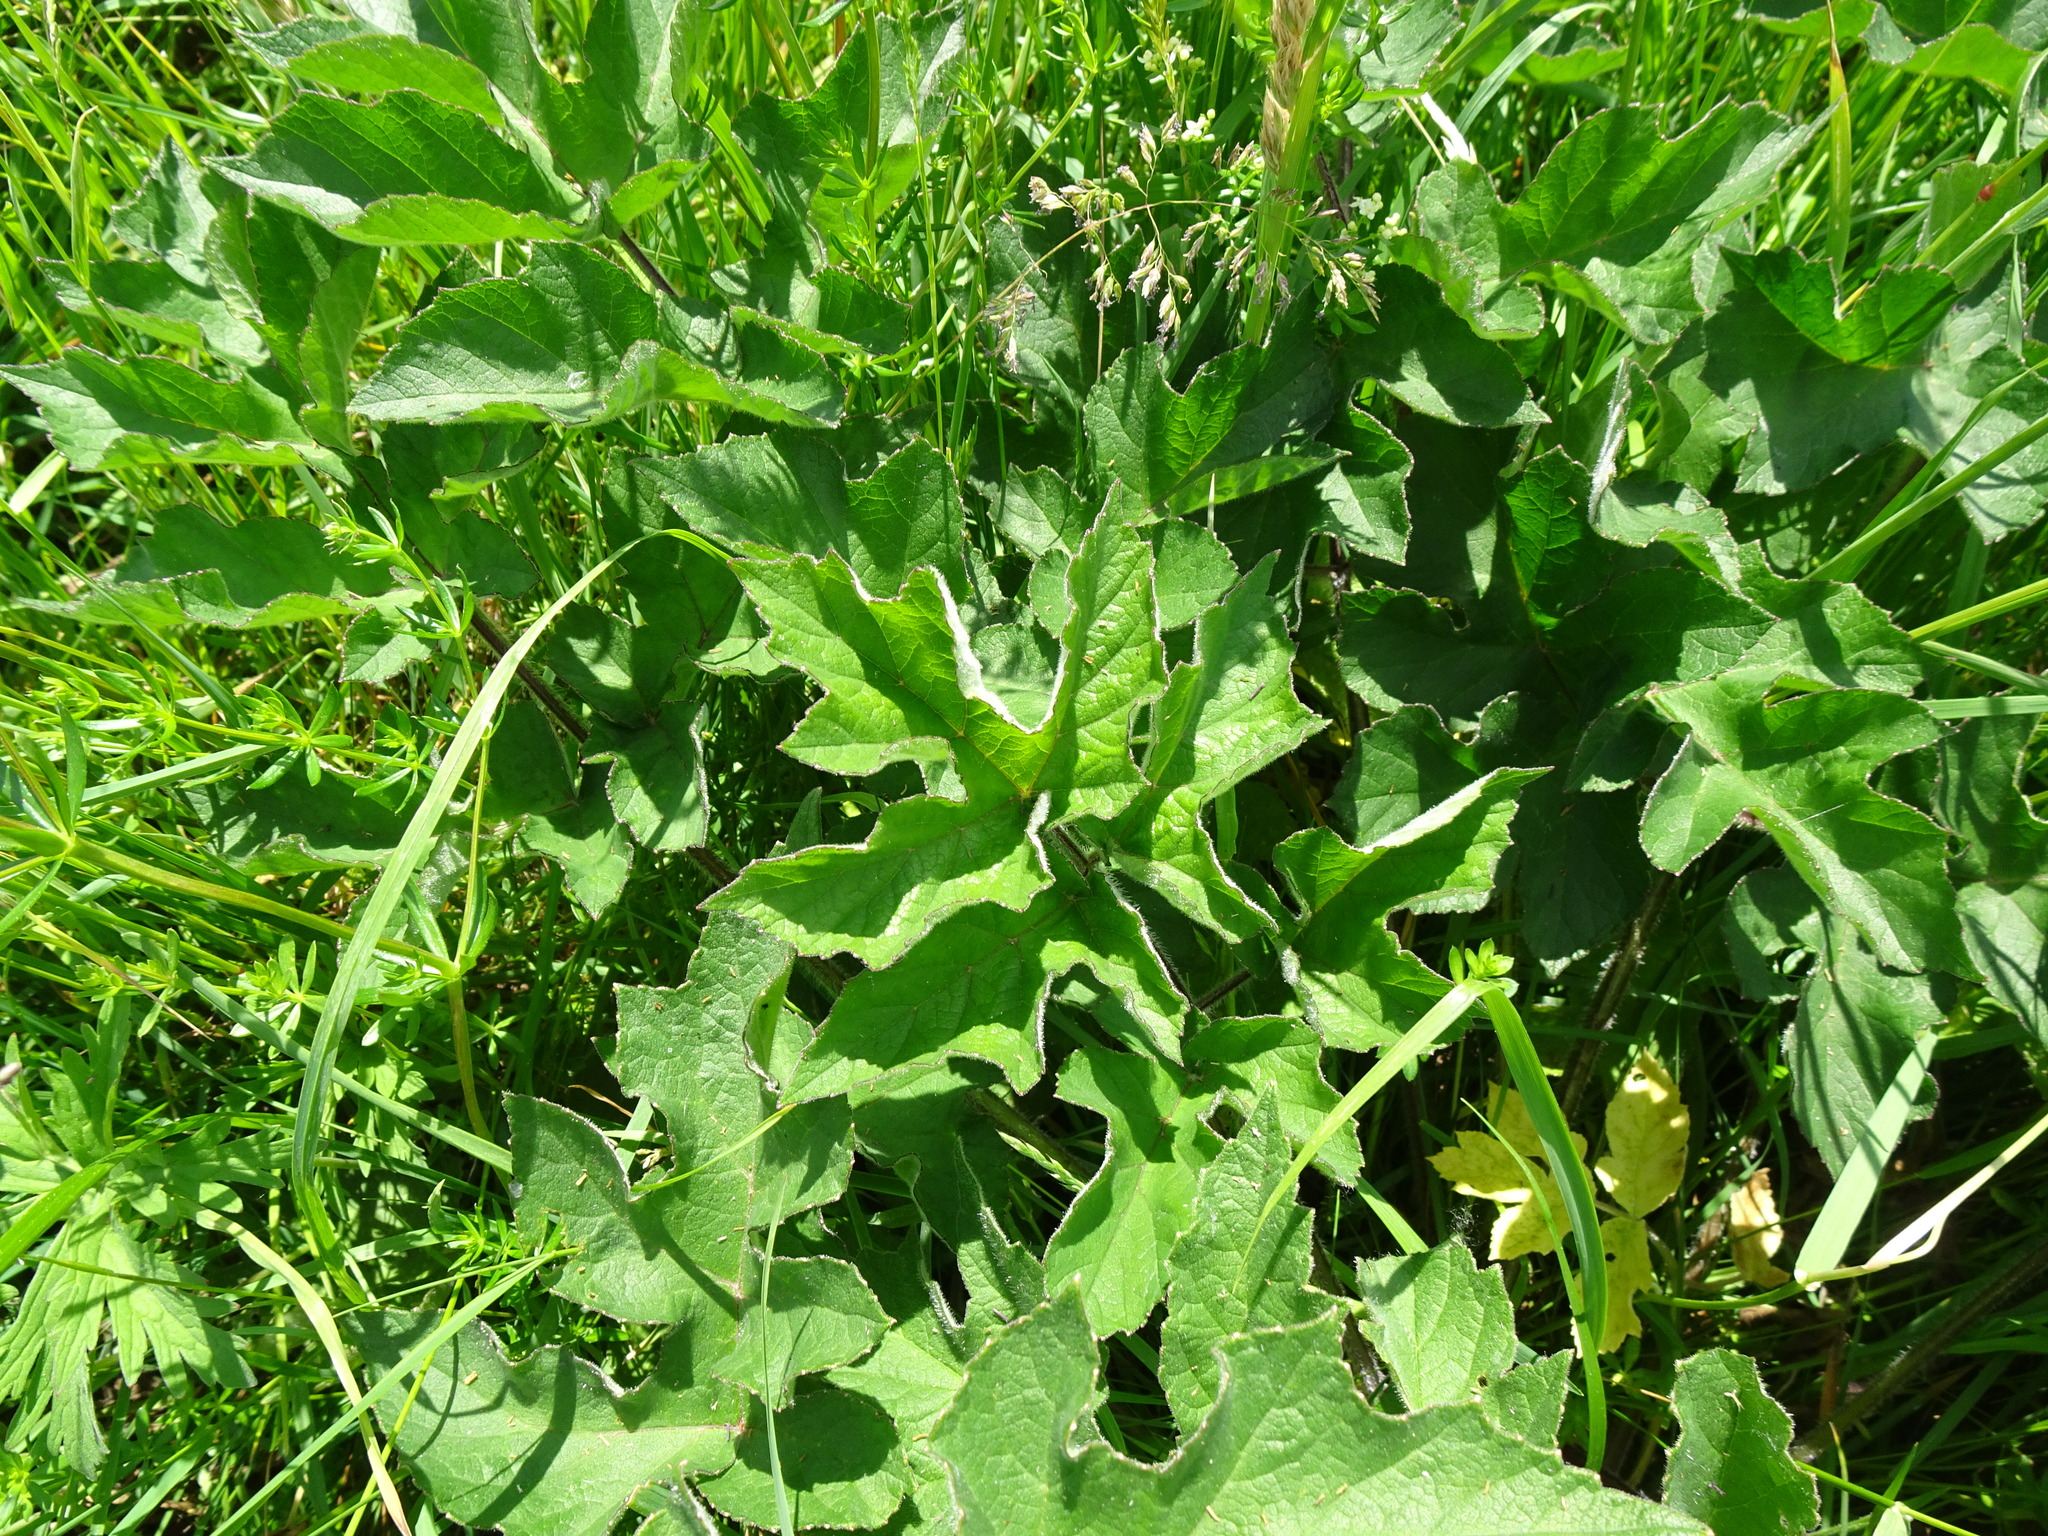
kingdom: Plantae
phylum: Tracheophyta
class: Magnoliopsida
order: Apiales
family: Apiaceae
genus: Heracleum
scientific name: Heracleum sphondylium
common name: Hogweed
